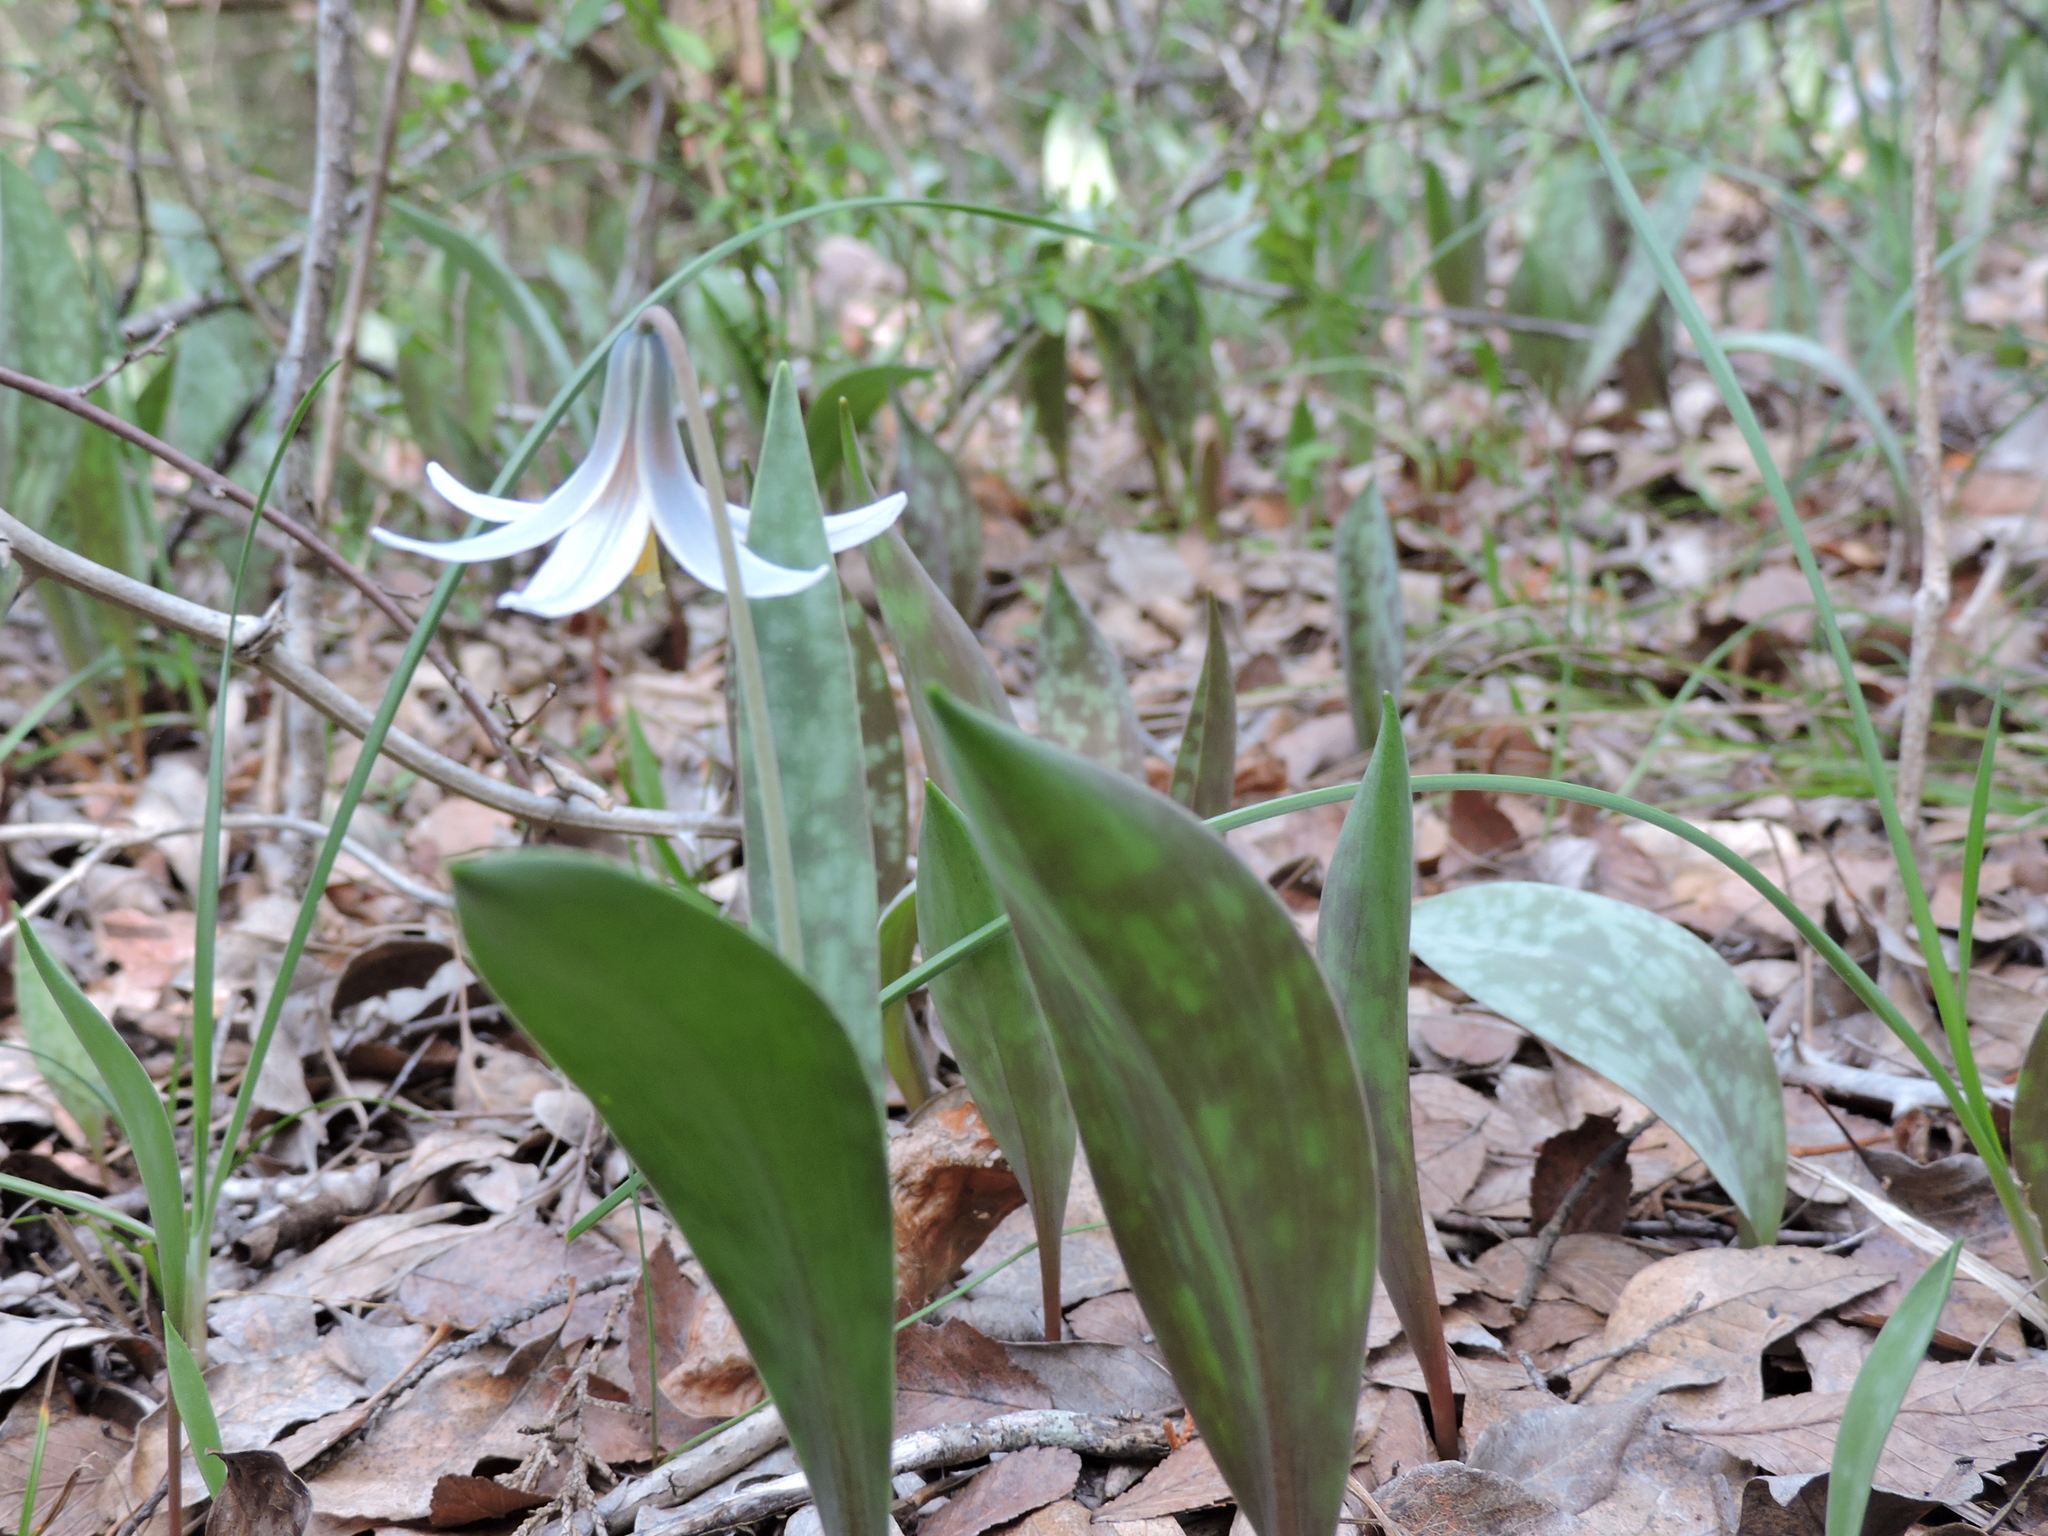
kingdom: Plantae
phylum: Tracheophyta
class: Liliopsida
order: Liliales
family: Liliaceae
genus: Erythronium
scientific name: Erythronium albidum
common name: White trout-lily
